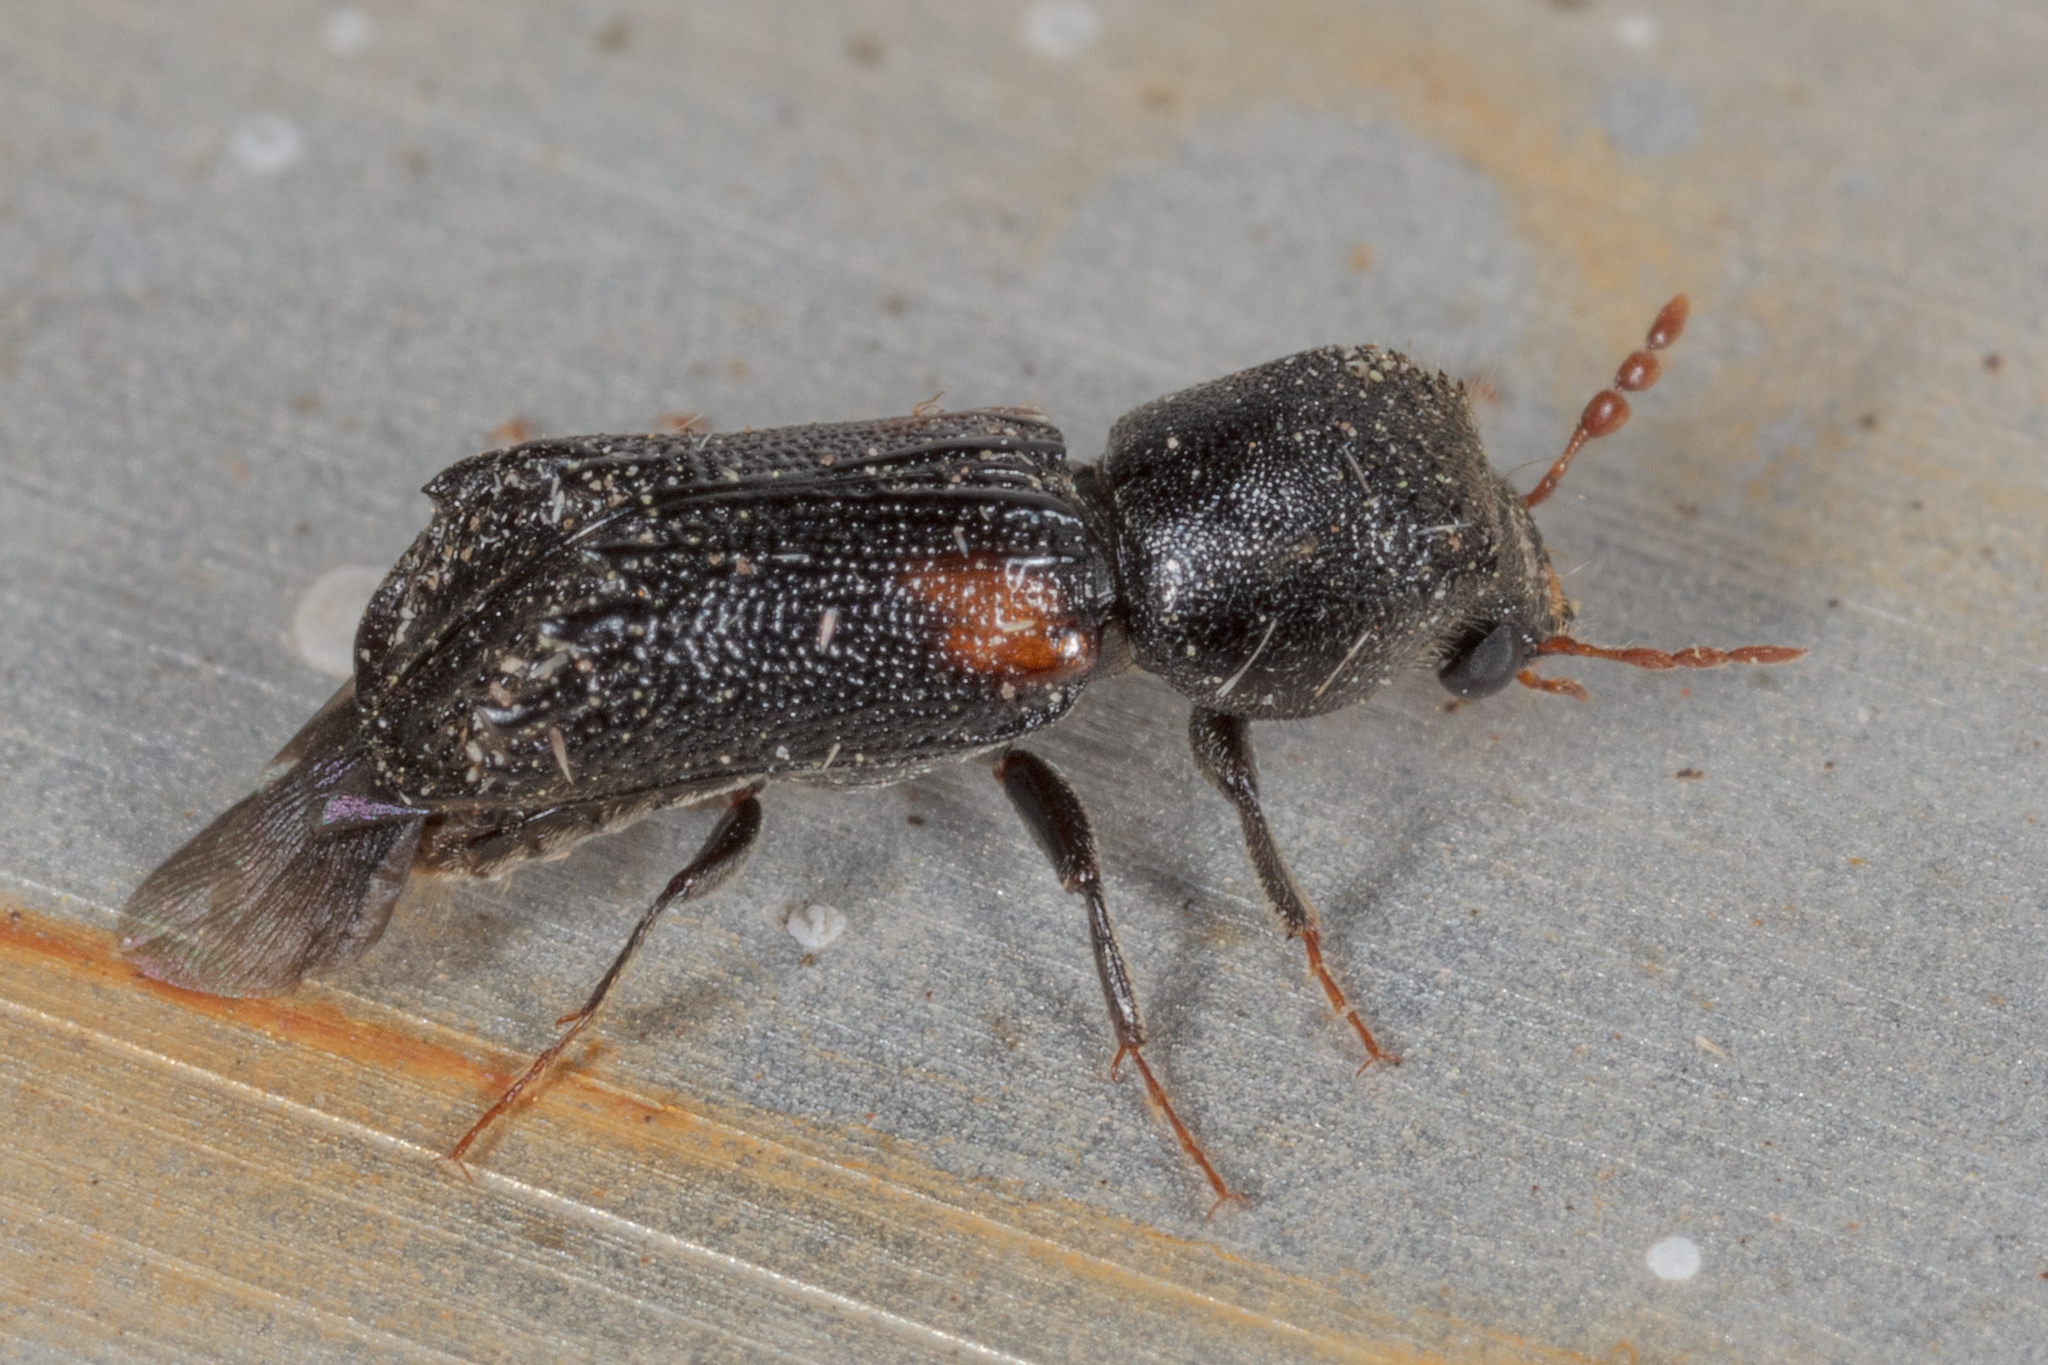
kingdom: Animalia
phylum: Arthropoda
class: Insecta
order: Coleoptera
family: Bostrichidae
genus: Xylobiops
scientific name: Xylobiops basilaris
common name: Red-shouldered bostrichid
